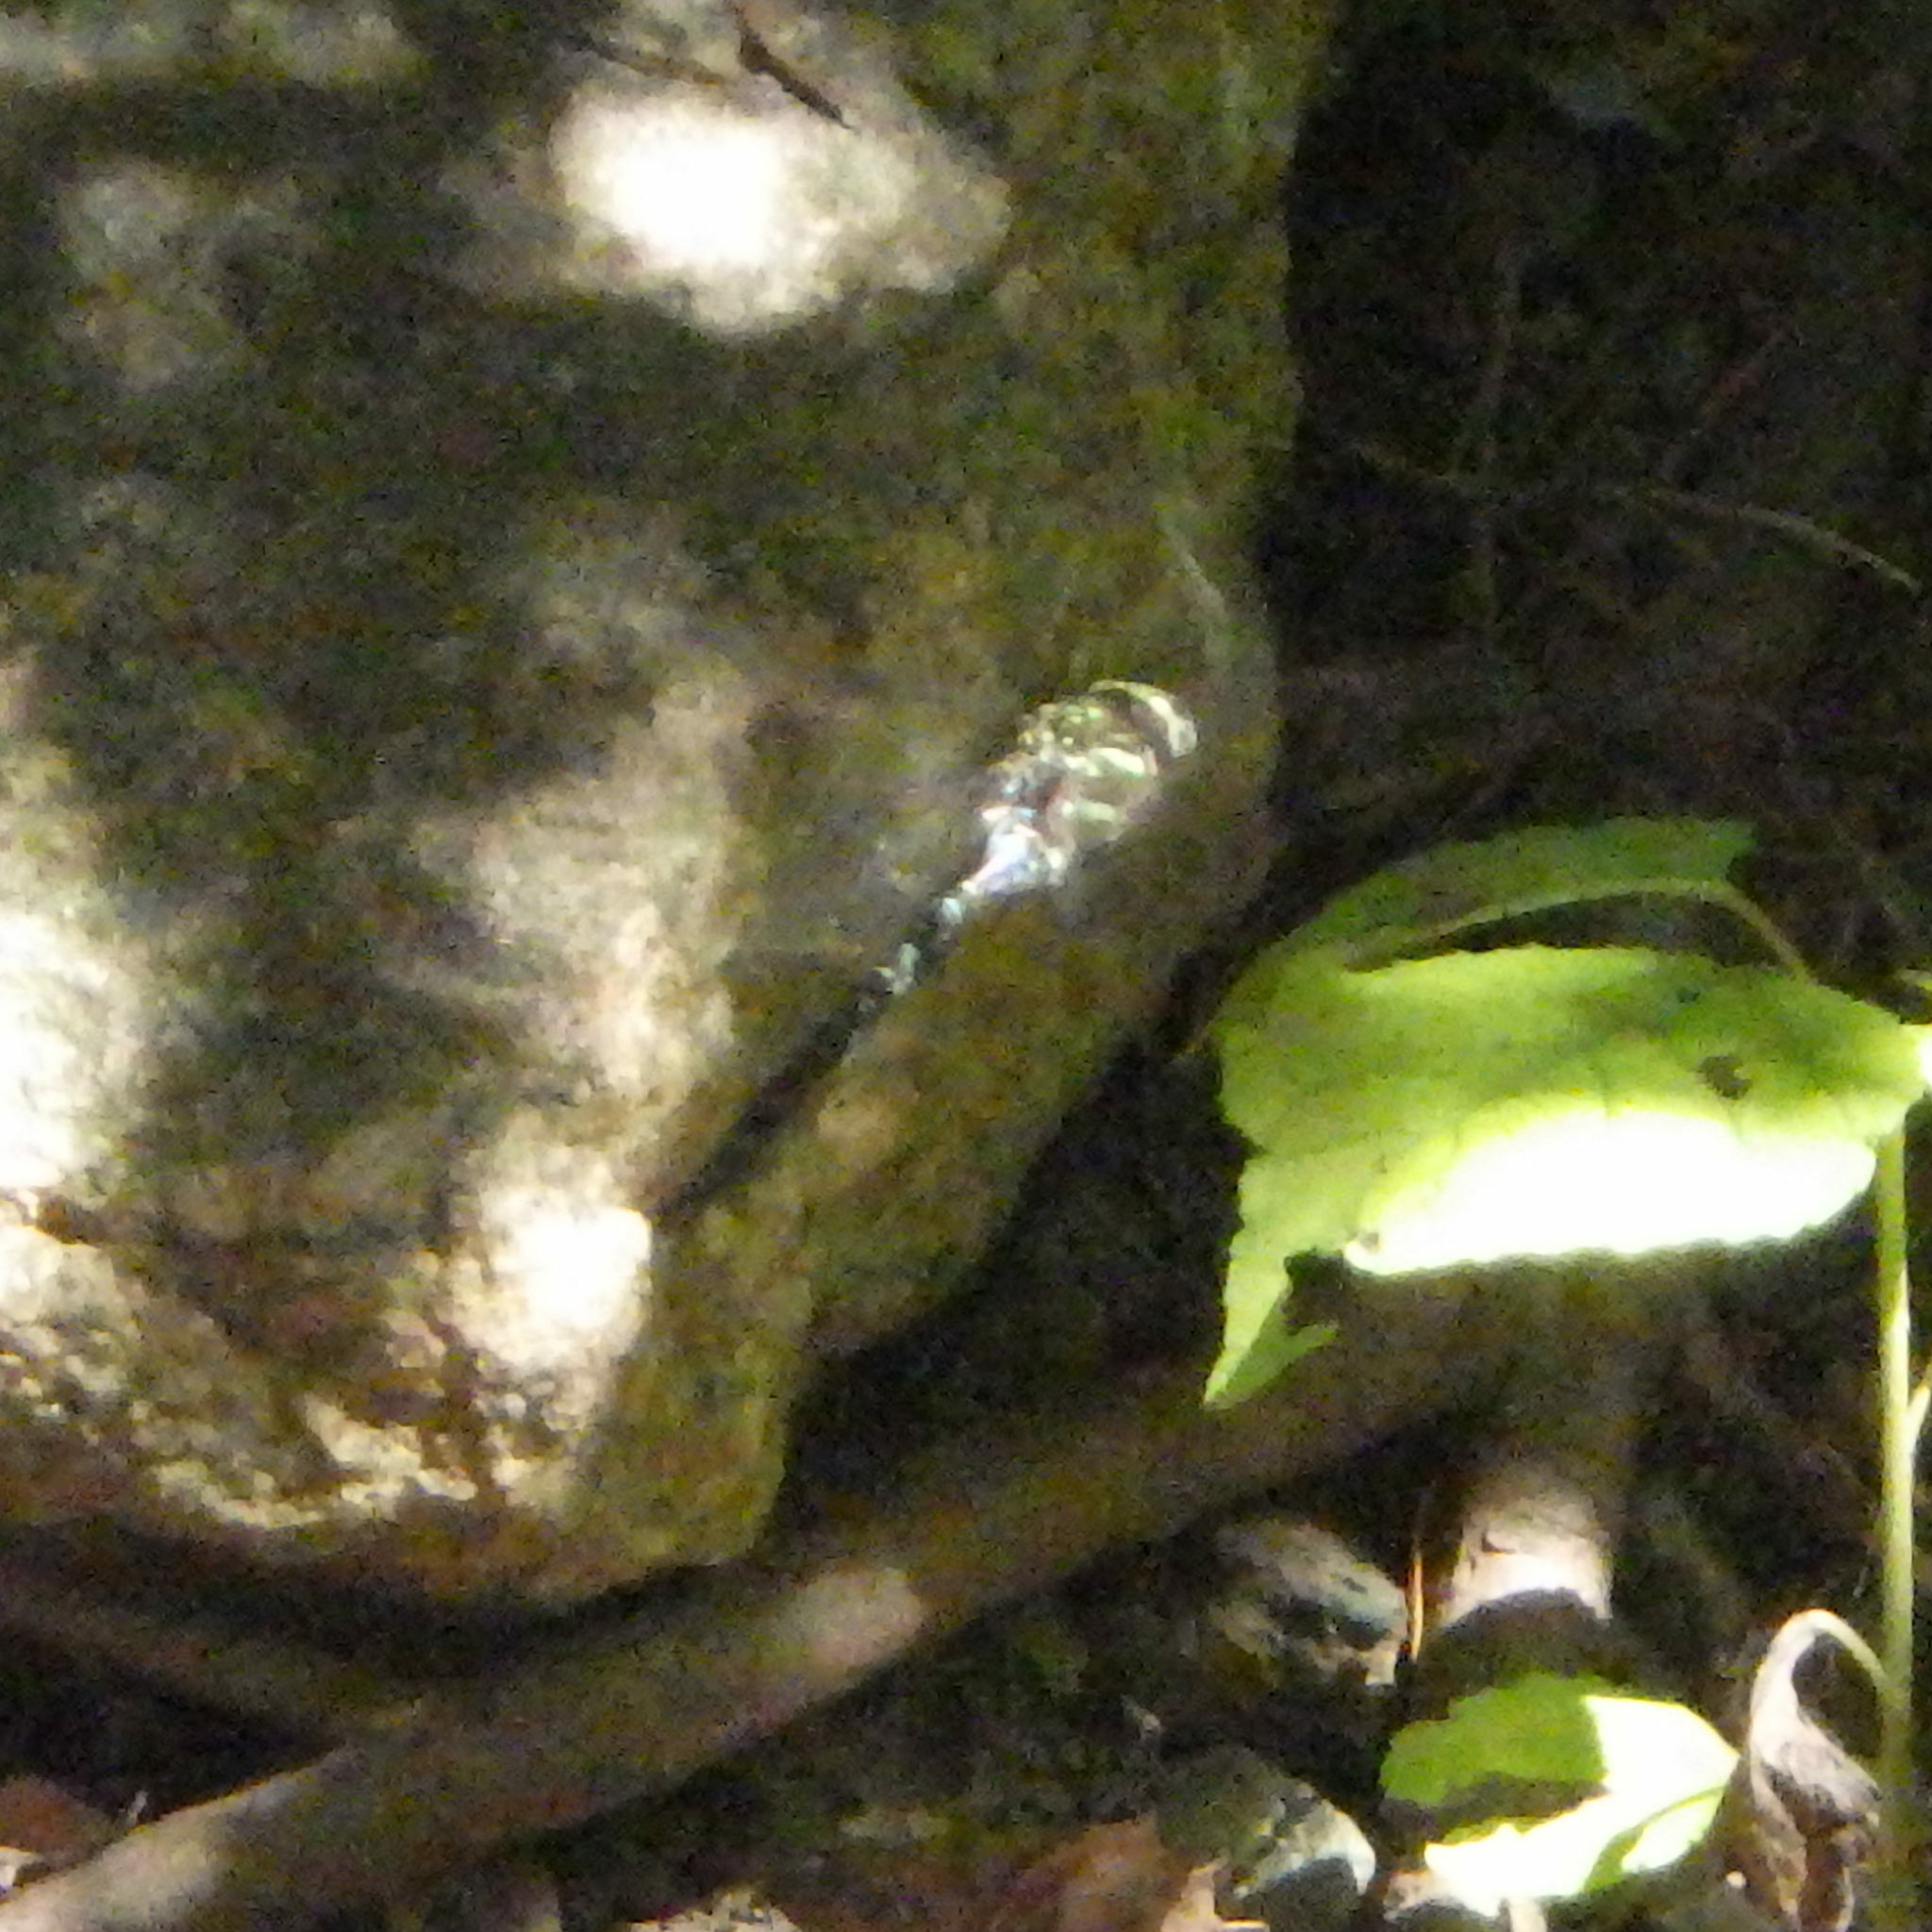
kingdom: Animalia
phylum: Arthropoda
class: Insecta
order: Odonata
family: Aeshnidae
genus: Aeshna
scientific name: Aeshna umbrosa
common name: Shadow darner
